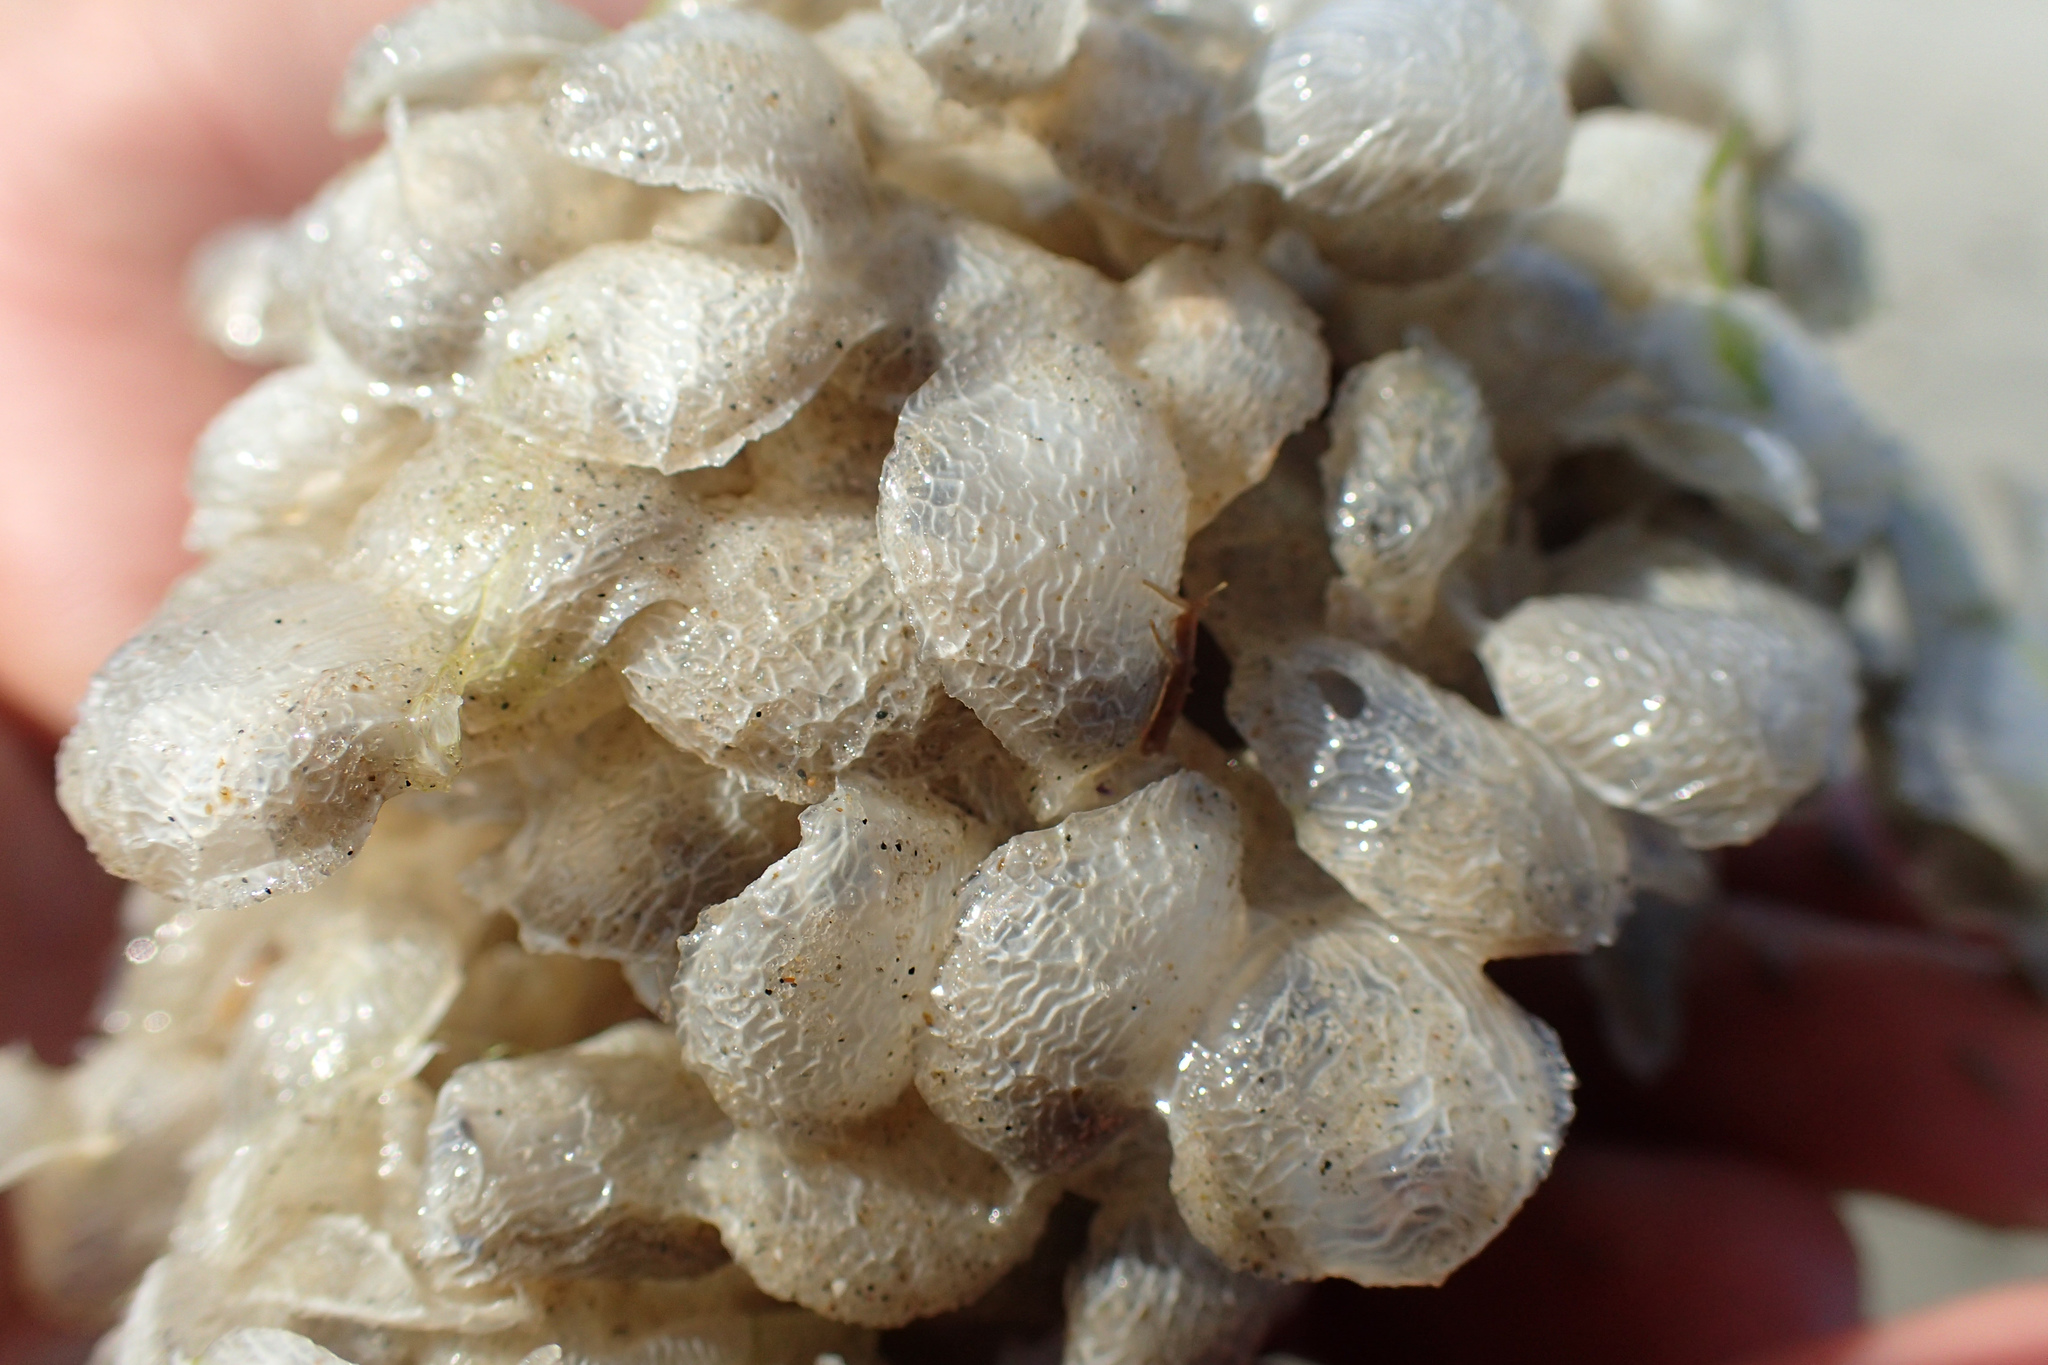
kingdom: Animalia
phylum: Mollusca
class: Gastropoda
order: Neogastropoda
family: Buccinidae
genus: Buccinum
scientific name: Buccinum undatum
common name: Common whelk
